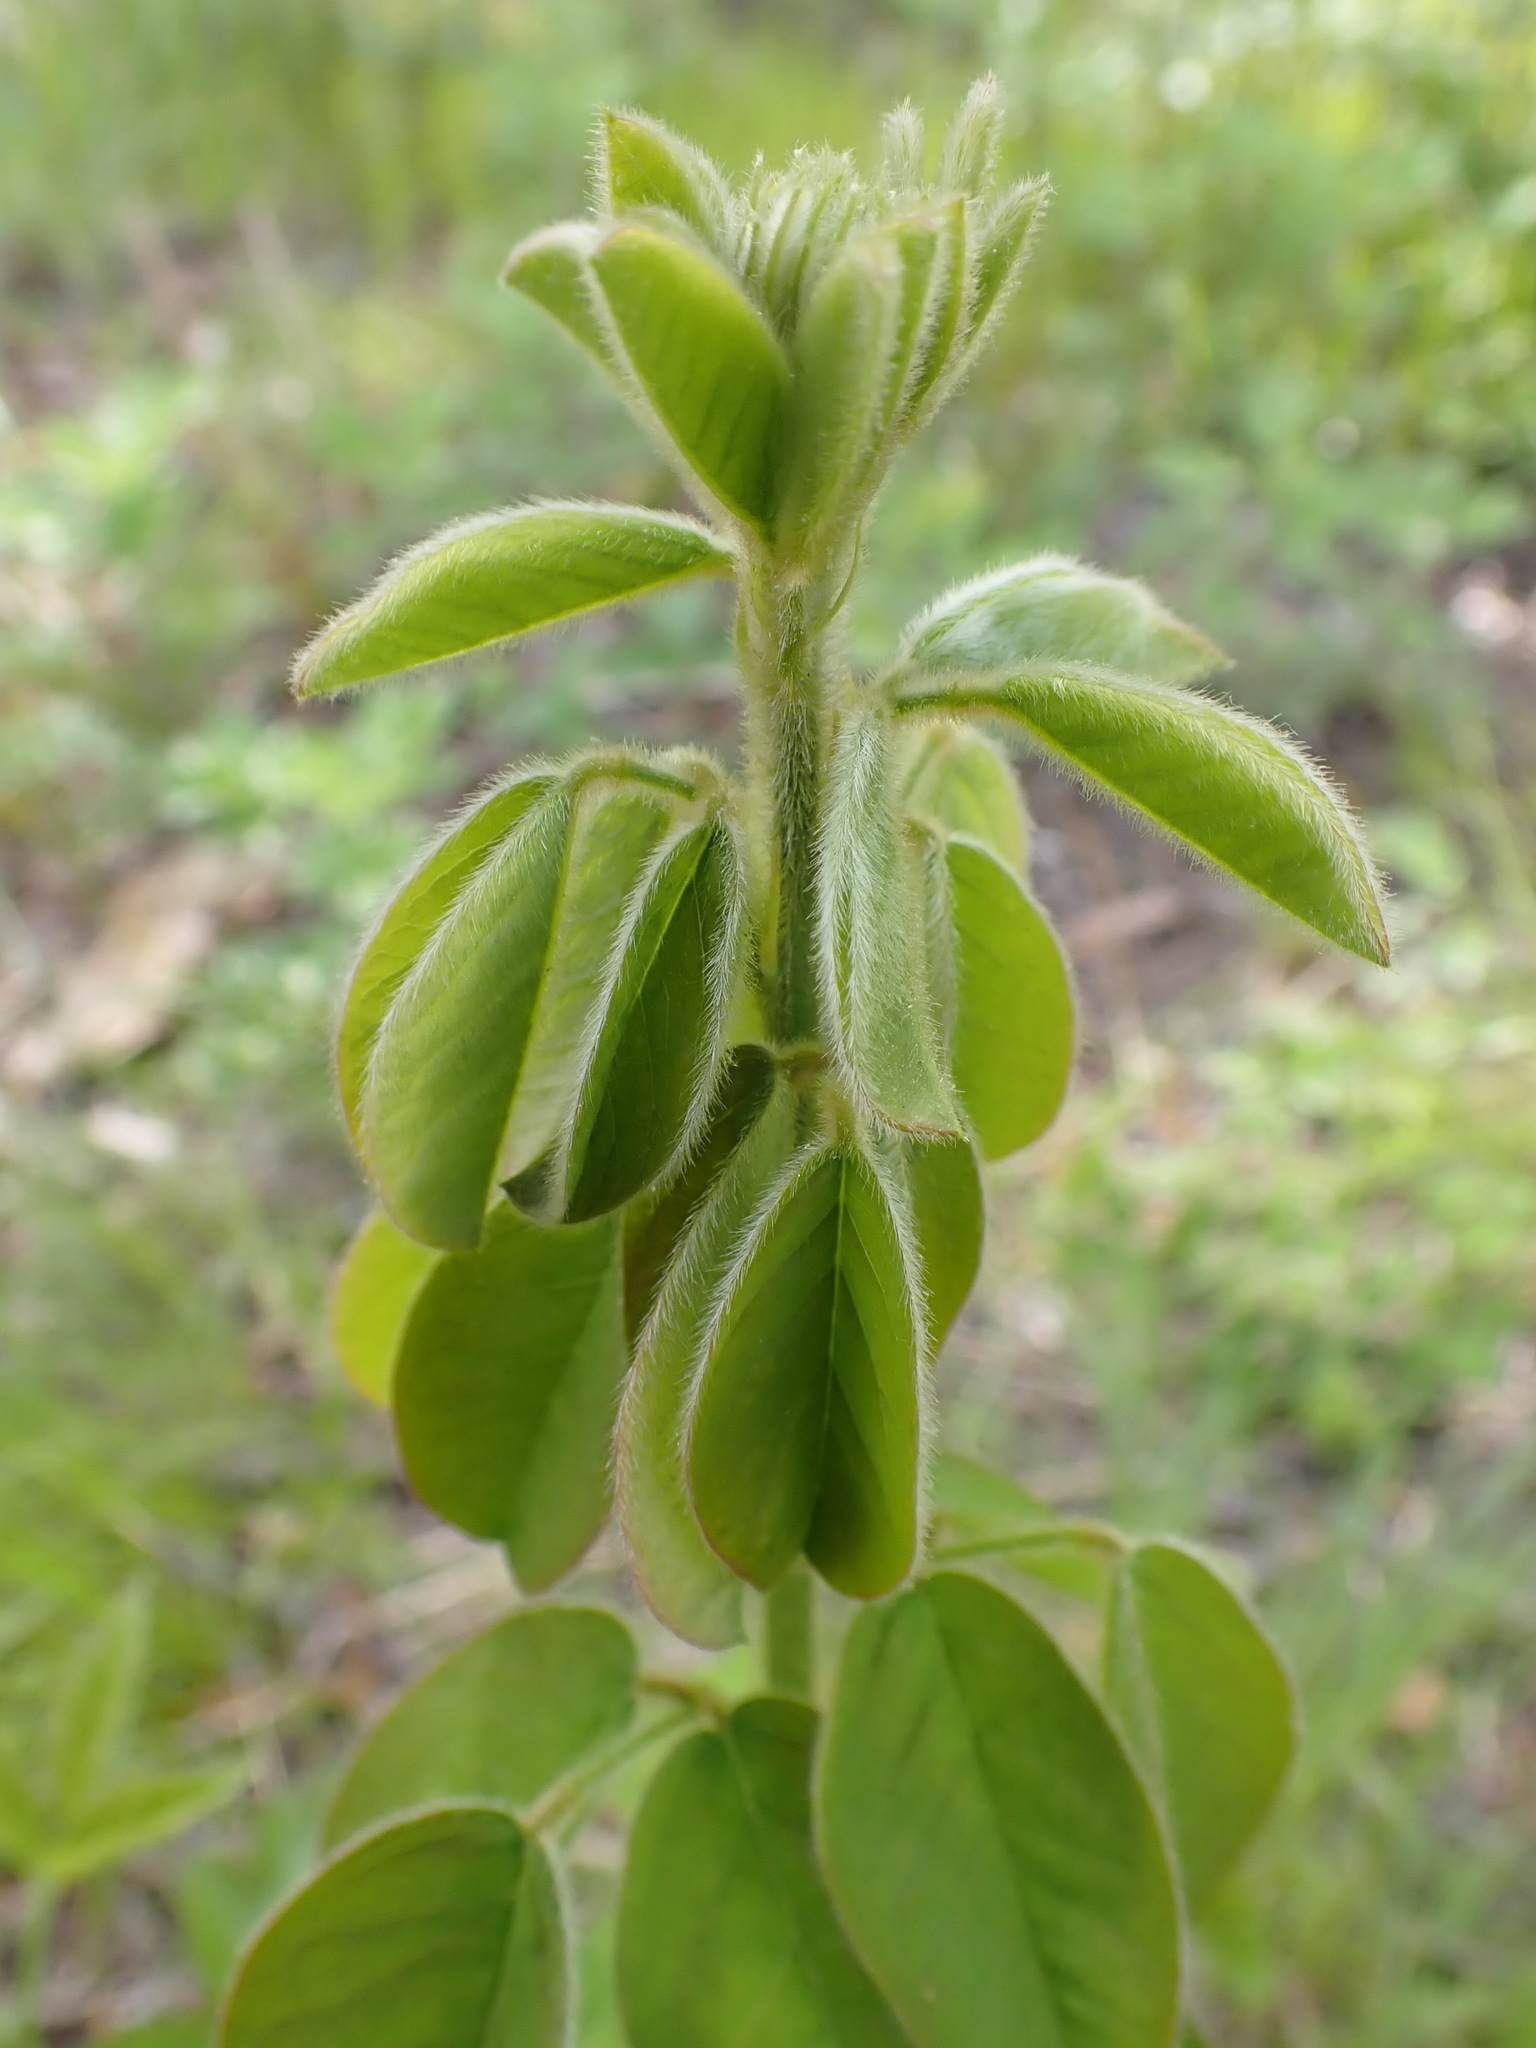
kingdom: Plantae
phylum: Tracheophyta
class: Magnoliopsida
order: Fabales
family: Fabaceae
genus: Lespedeza
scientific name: Lespedeza hirta
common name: Hairy lespedeza
